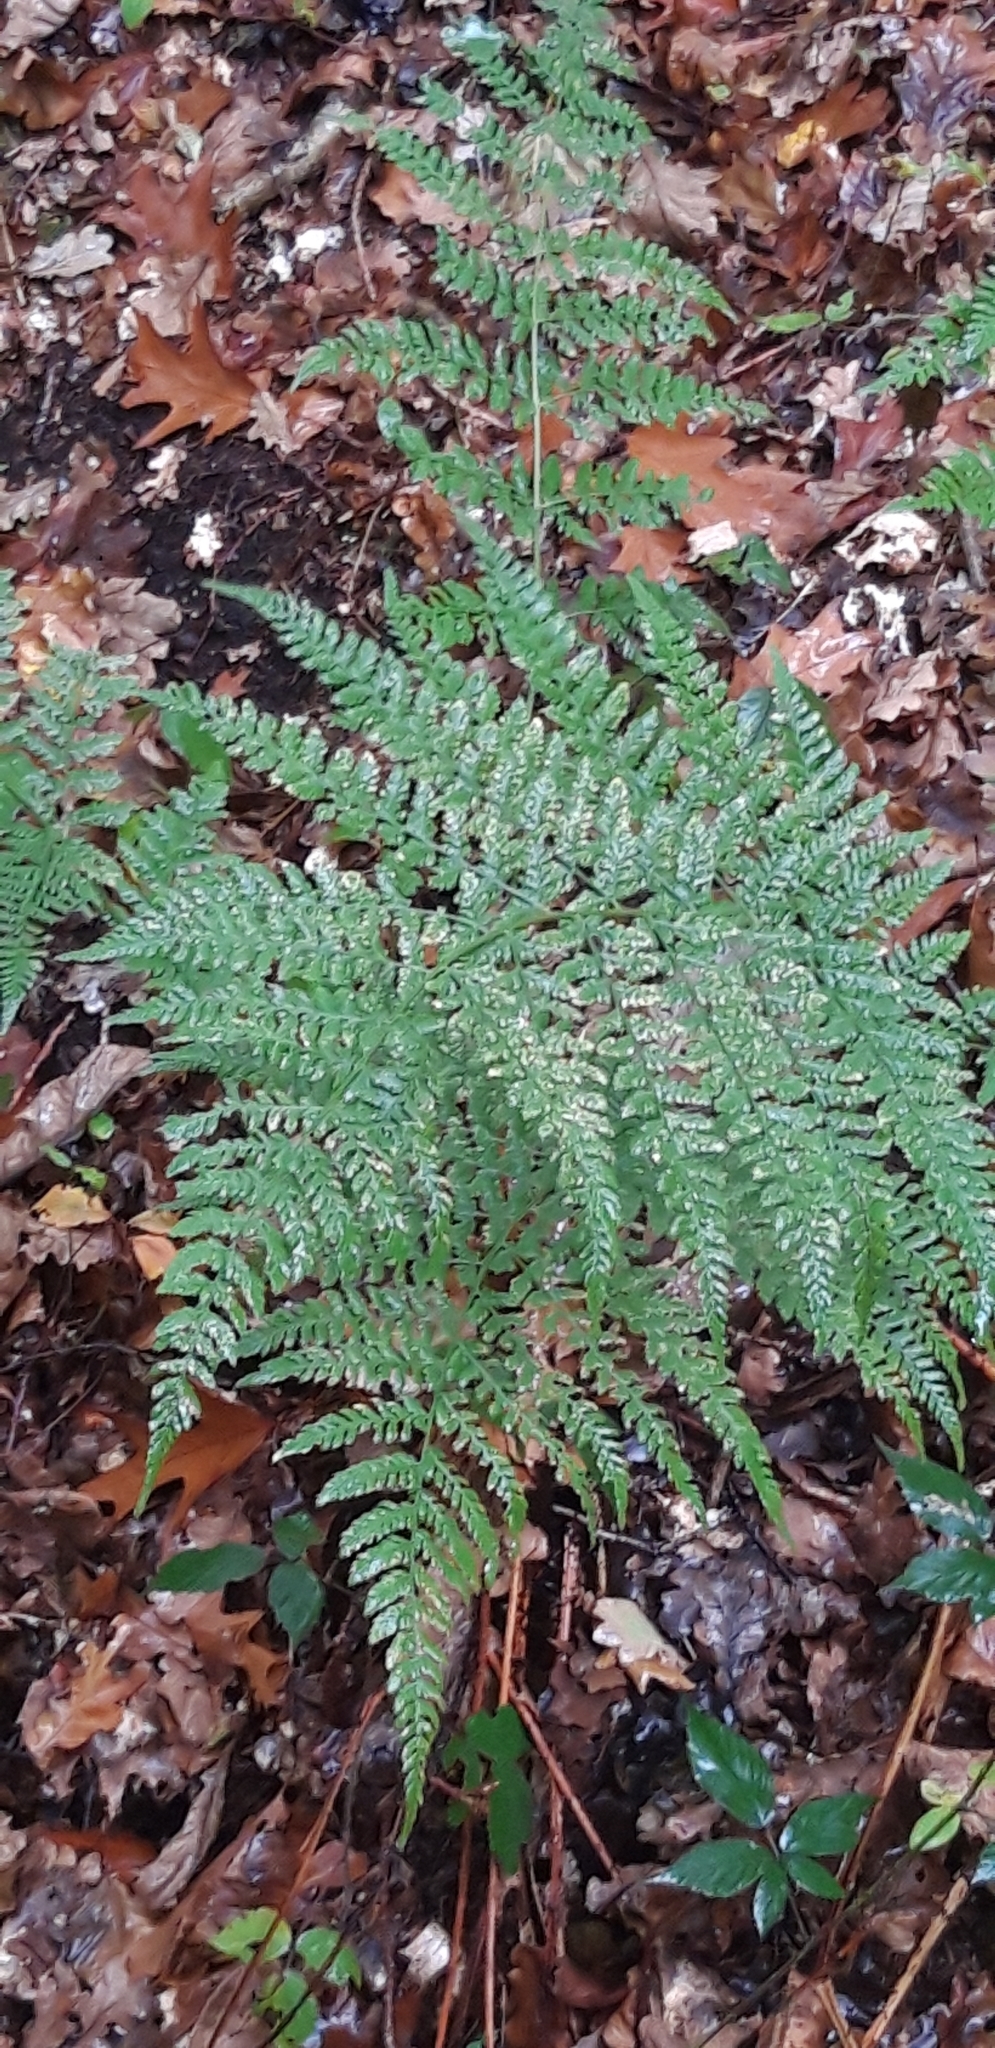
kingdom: Plantae
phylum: Tracheophyta
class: Polypodiopsida
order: Polypodiales
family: Dryopteridaceae
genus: Dryopteris
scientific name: Dryopteris dilatata
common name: Broad buckler-fern
